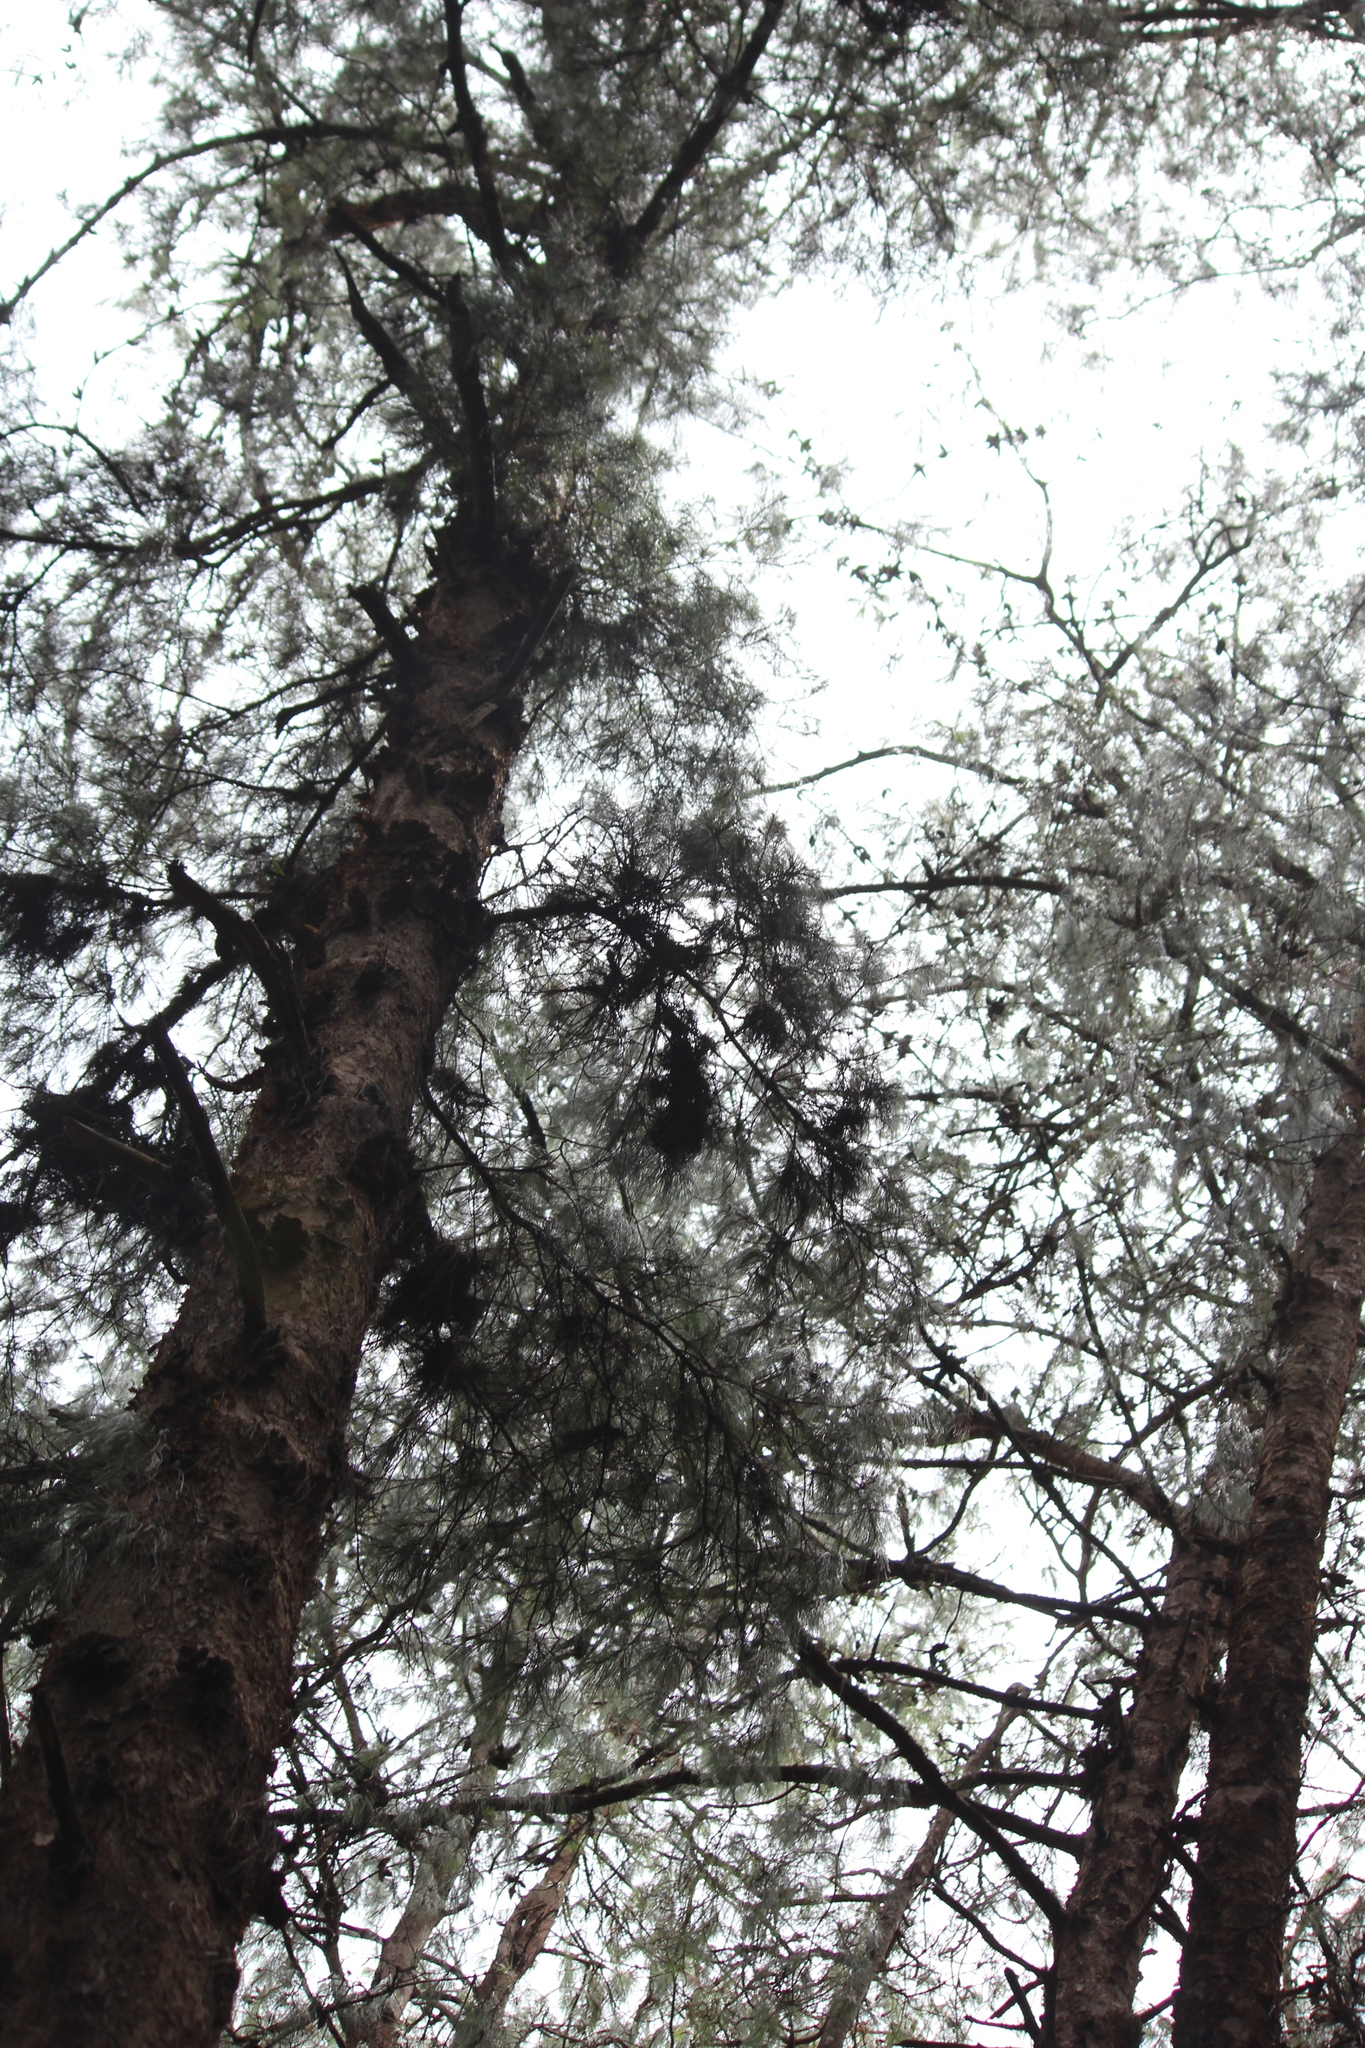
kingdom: Plantae
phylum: Tracheophyta
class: Pinopsida
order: Pinales
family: Pinaceae
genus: Pinus
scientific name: Pinus patula
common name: Mexican weeping pine
